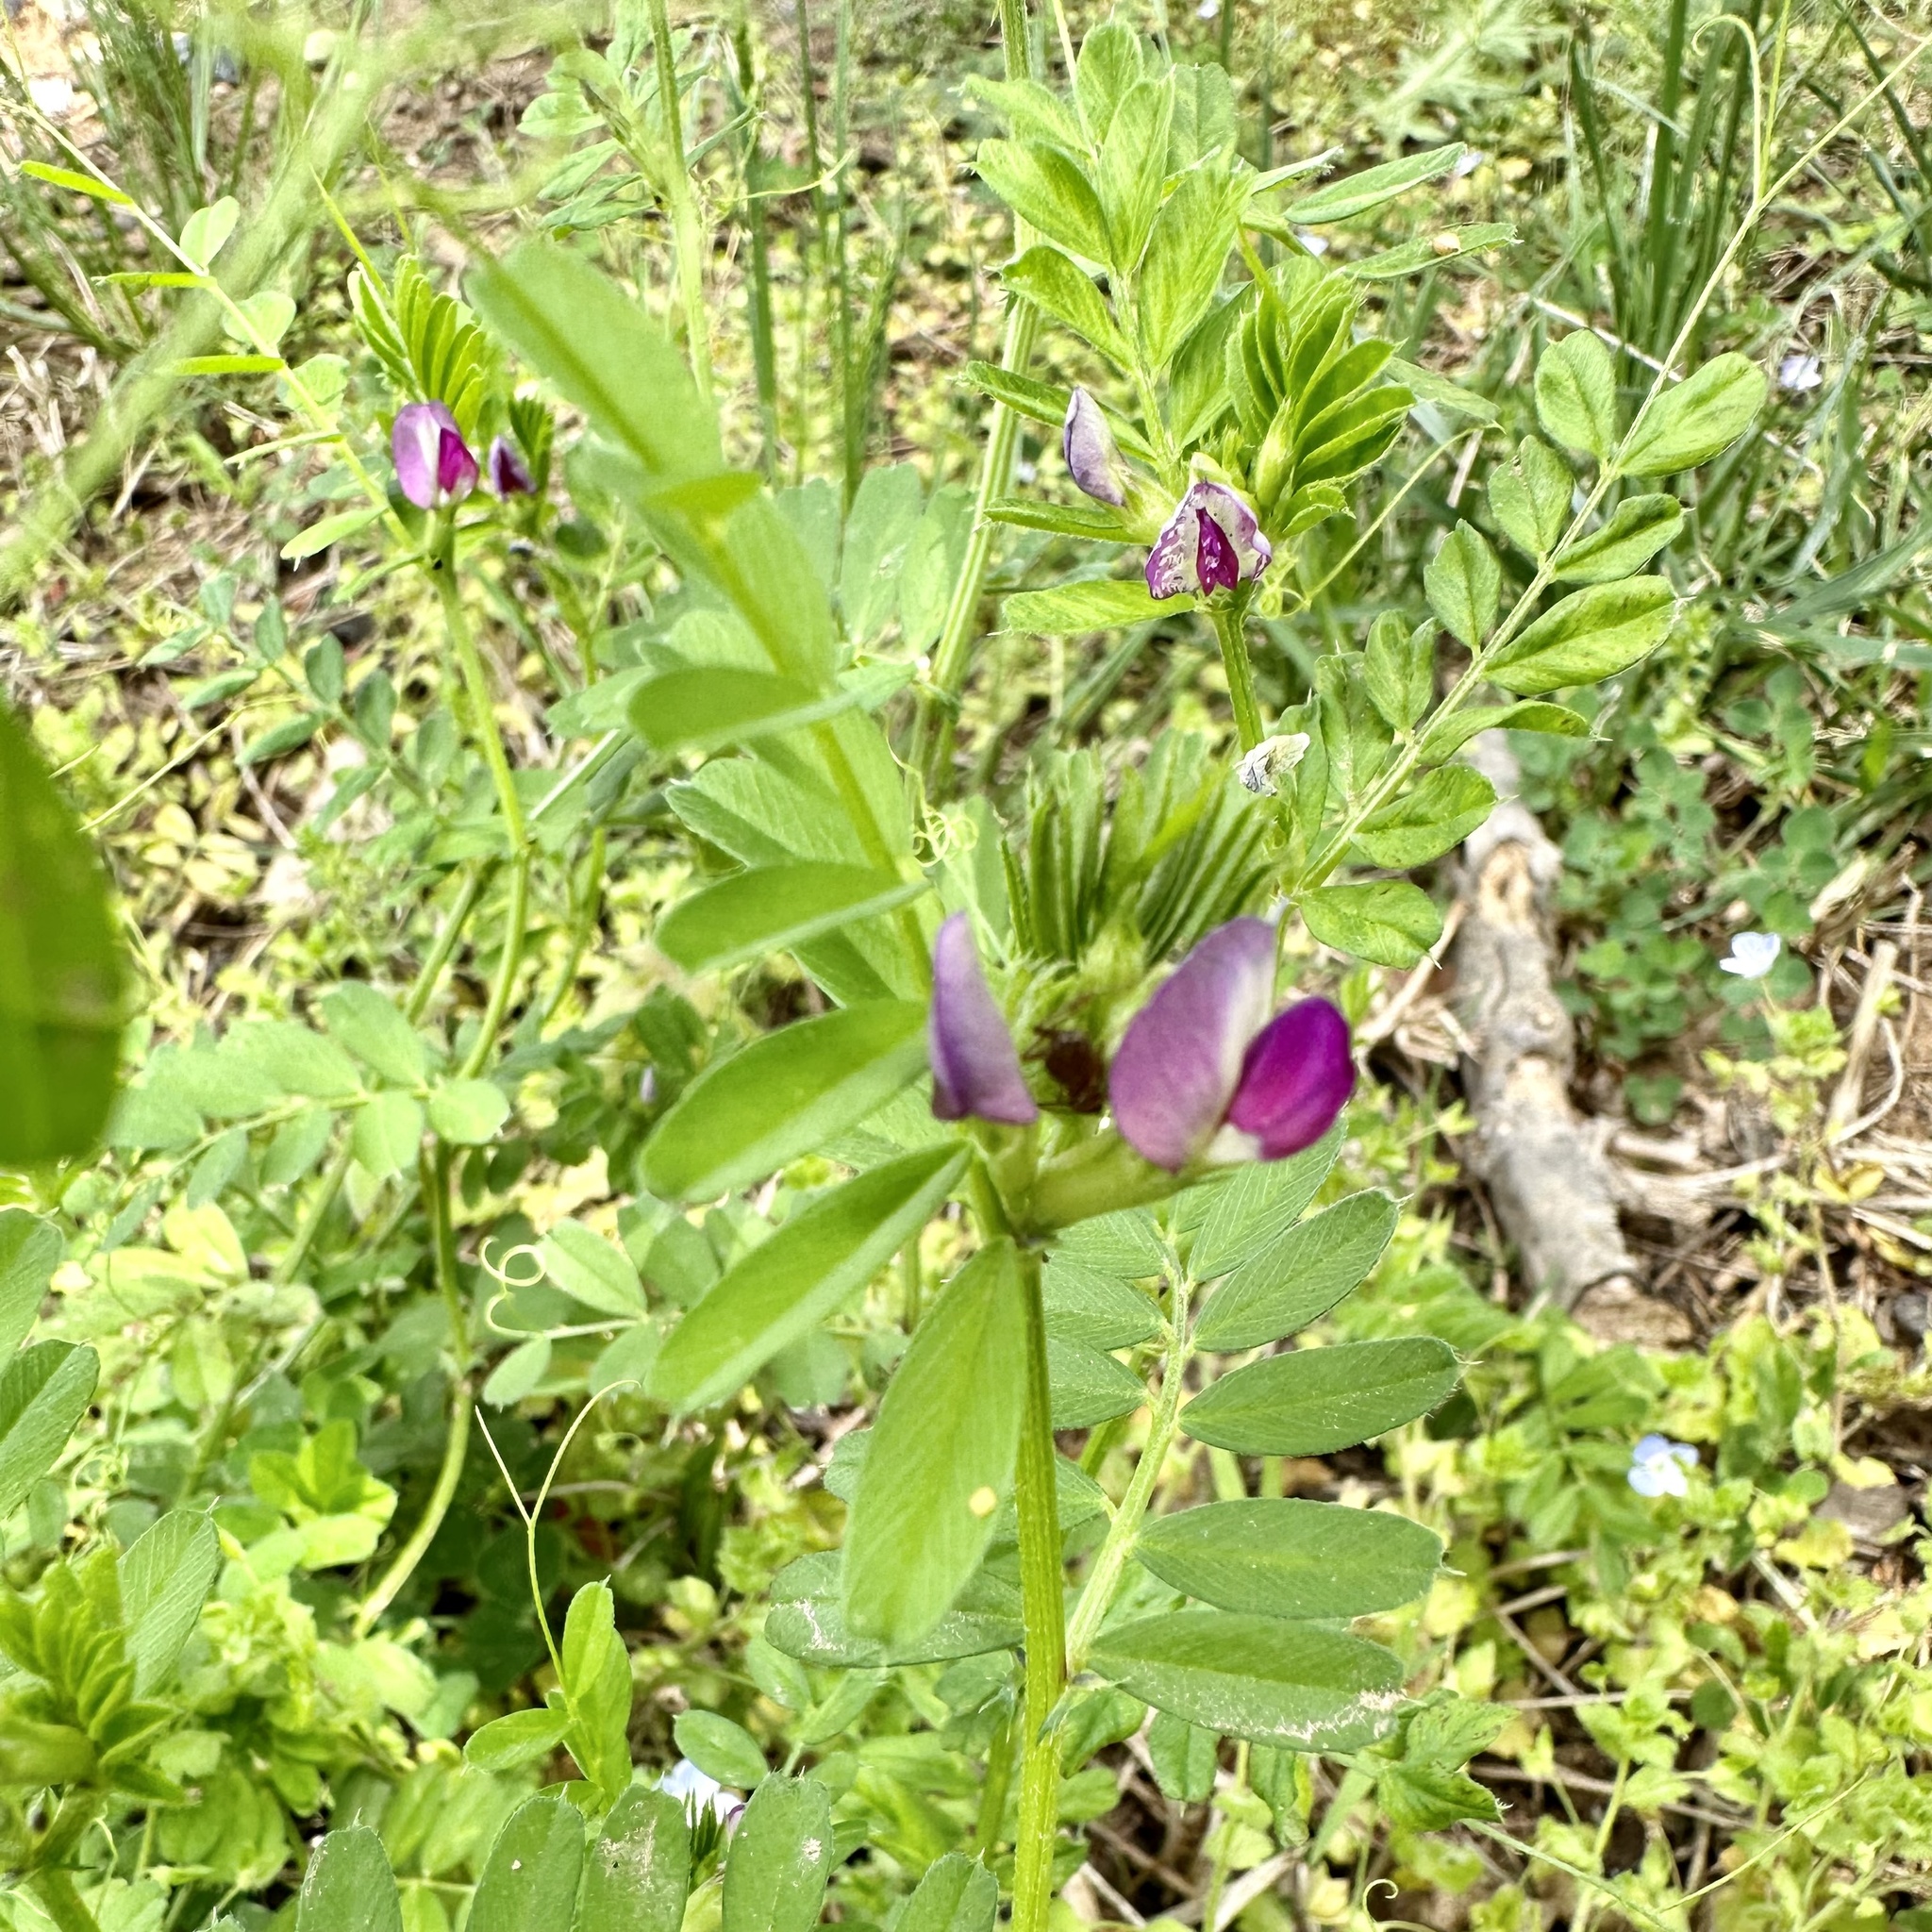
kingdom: Plantae
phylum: Tracheophyta
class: Magnoliopsida
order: Fabales
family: Fabaceae
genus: Vicia
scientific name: Vicia sativa
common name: Garden vetch
